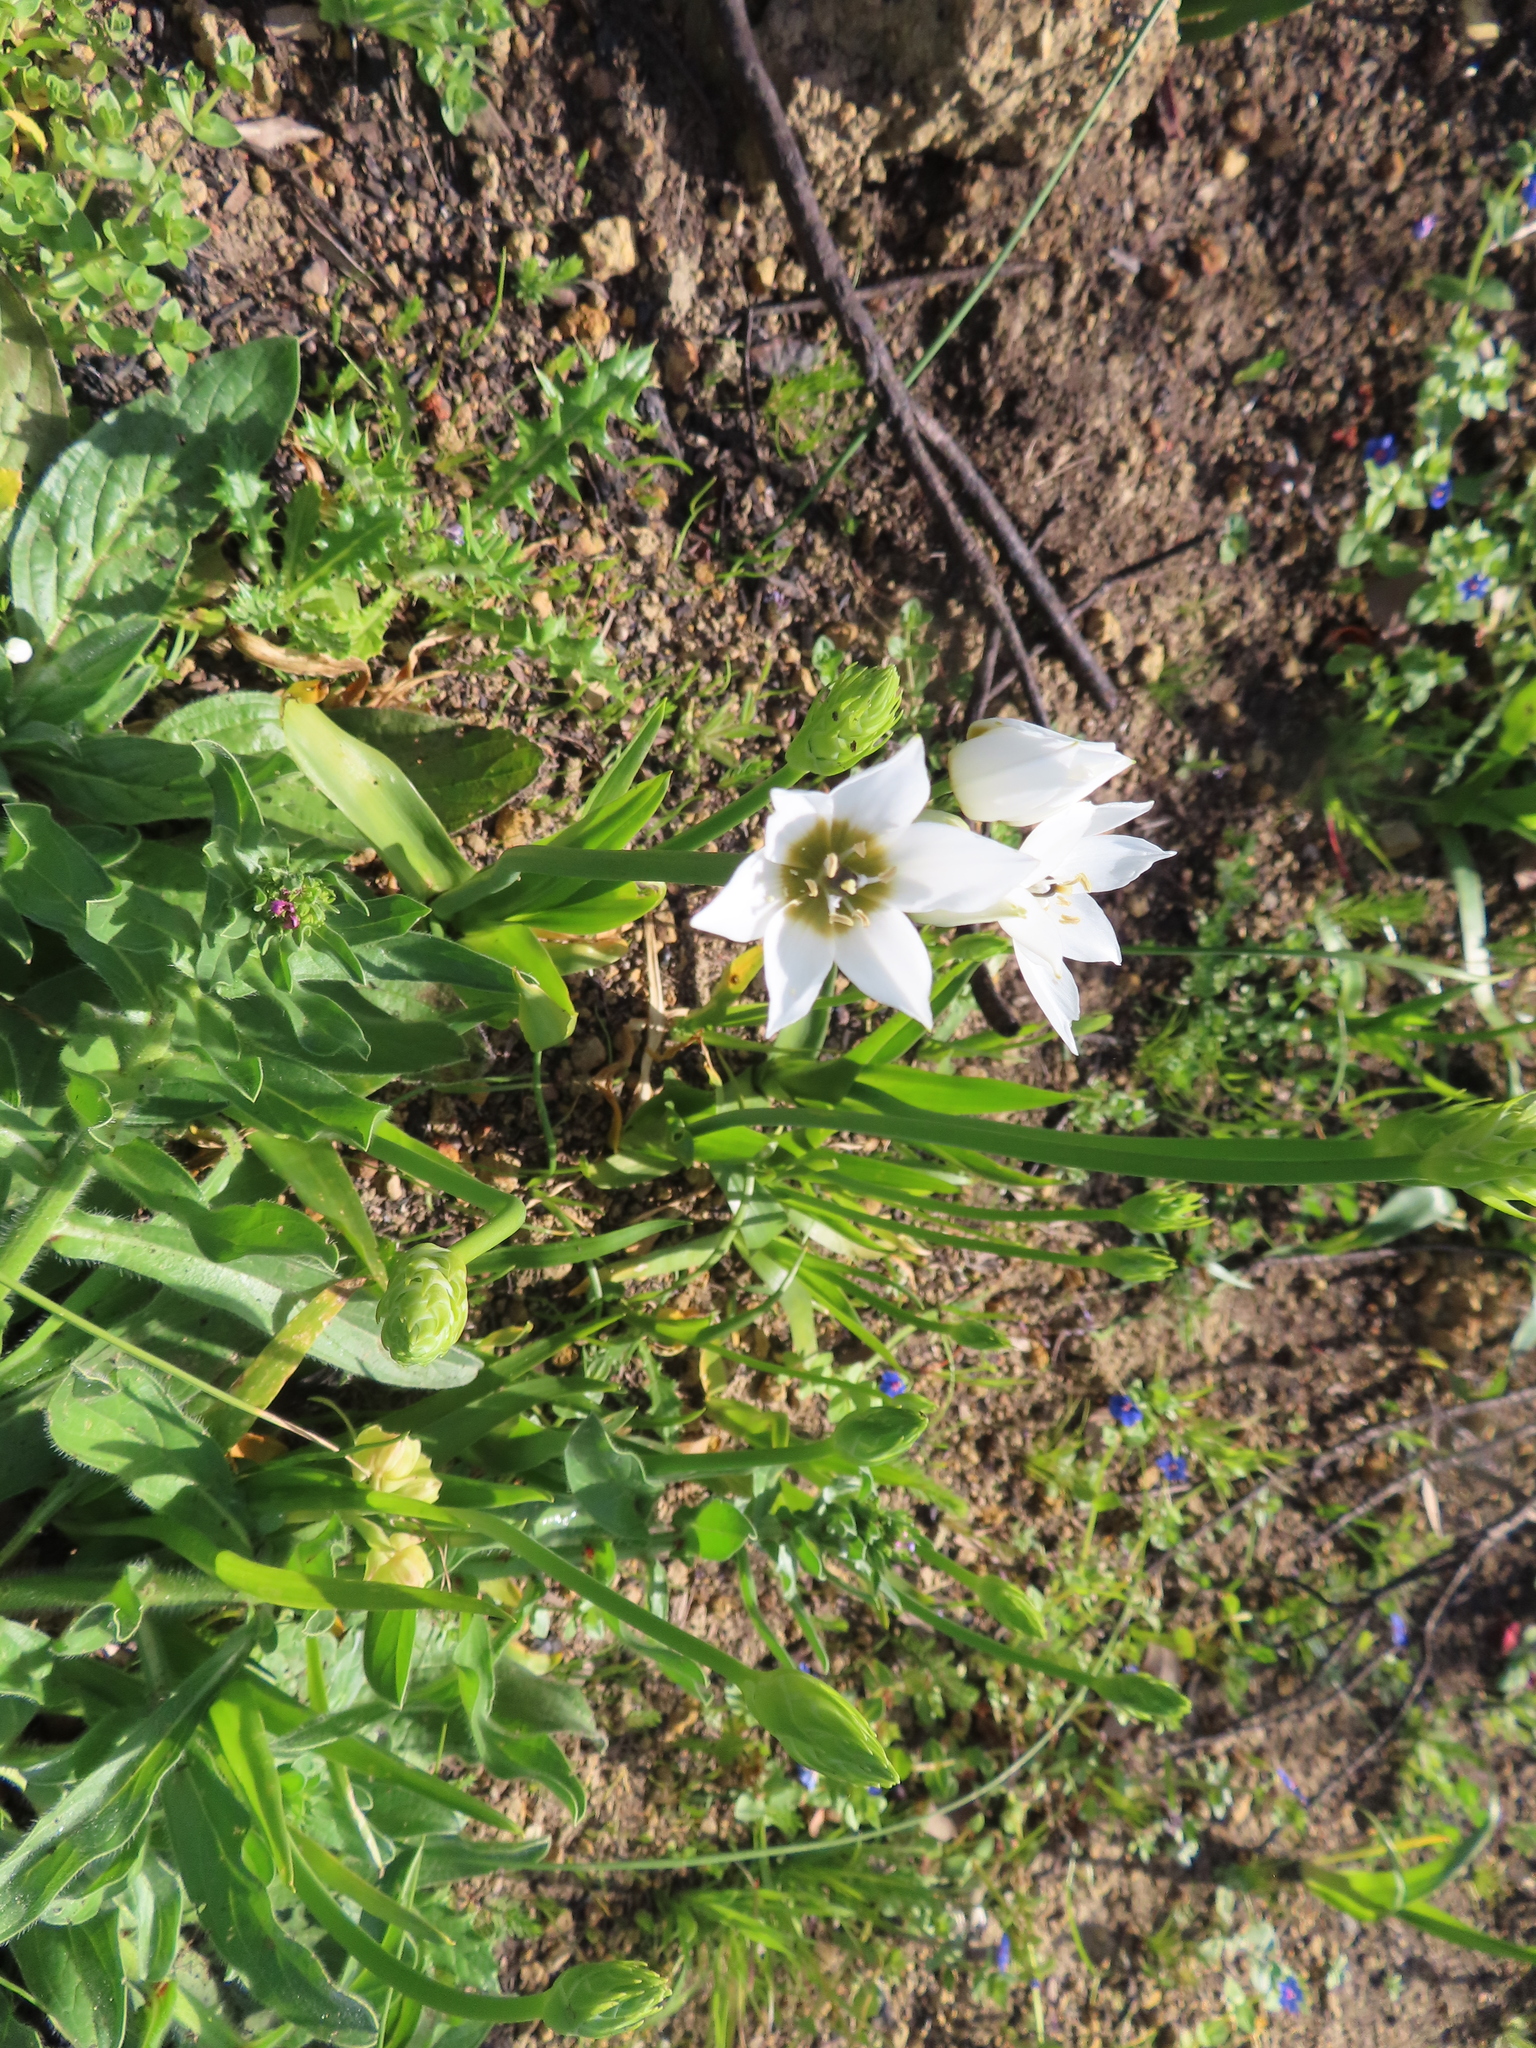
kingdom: Plantae
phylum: Tracheophyta
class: Liliopsida
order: Asparagales
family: Asparagaceae
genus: Ornithogalum
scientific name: Ornithogalum thyrsoides
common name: Chincherinchee
